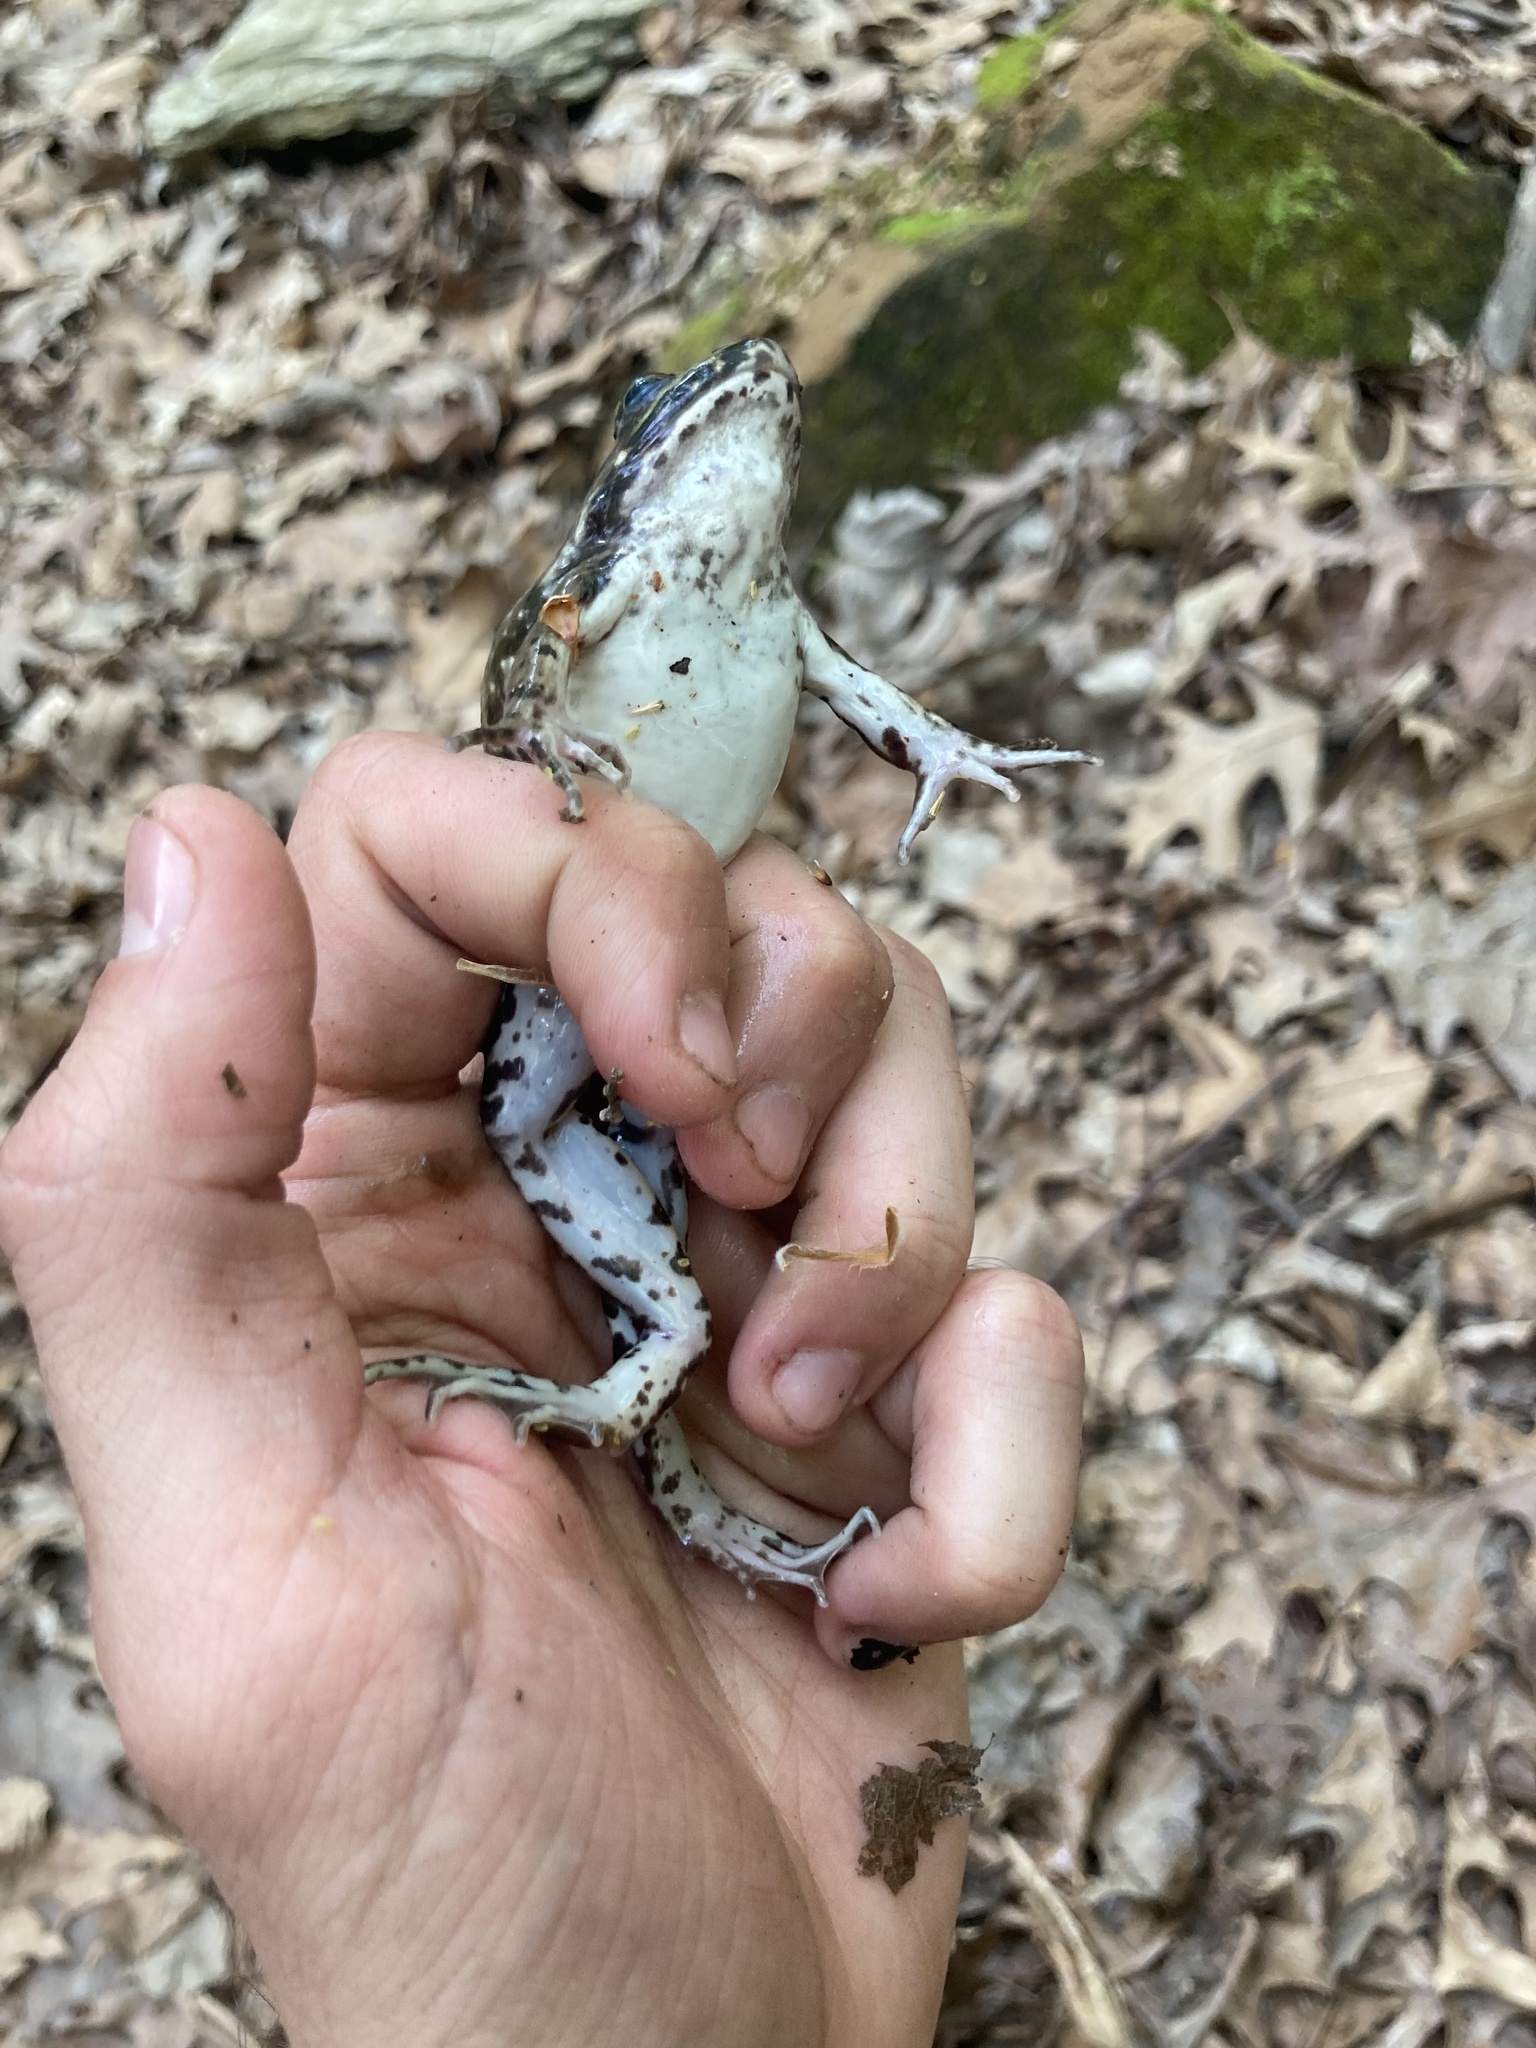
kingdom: Animalia
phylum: Chordata
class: Amphibia
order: Anura
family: Ranidae
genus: Lithobates
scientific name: Lithobates clamitans
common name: Green frog
